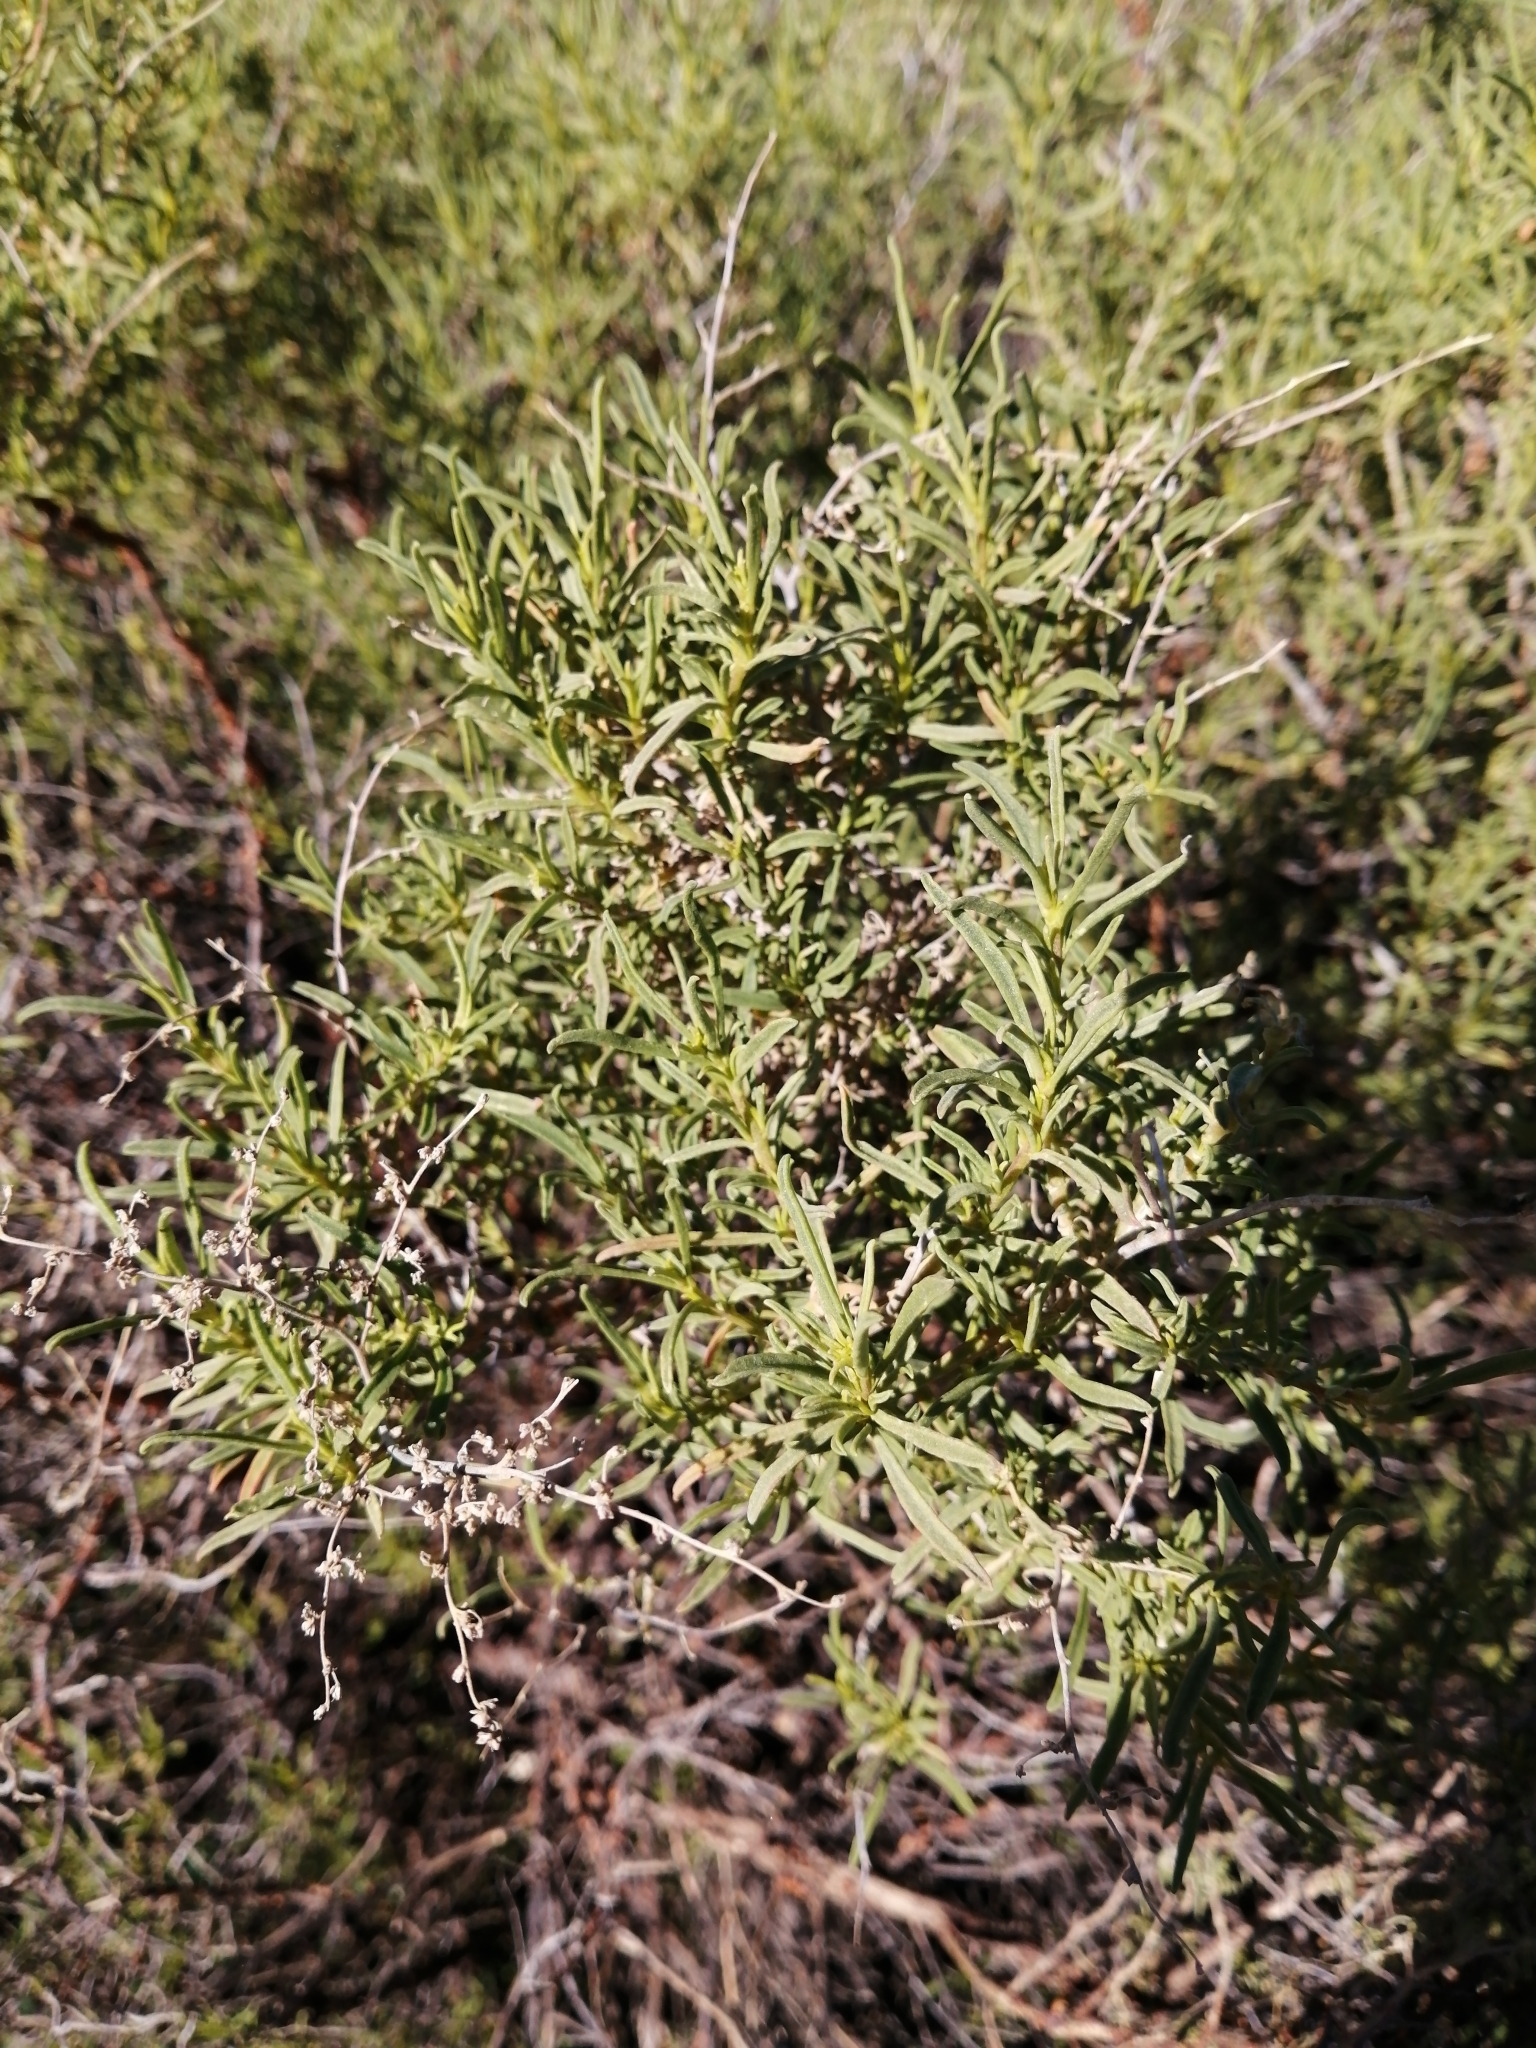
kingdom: Plantae
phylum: Tracheophyta
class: Magnoliopsida
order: Caryophyllales
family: Aizoaceae
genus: Aizoon
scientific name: Aizoon africanum
